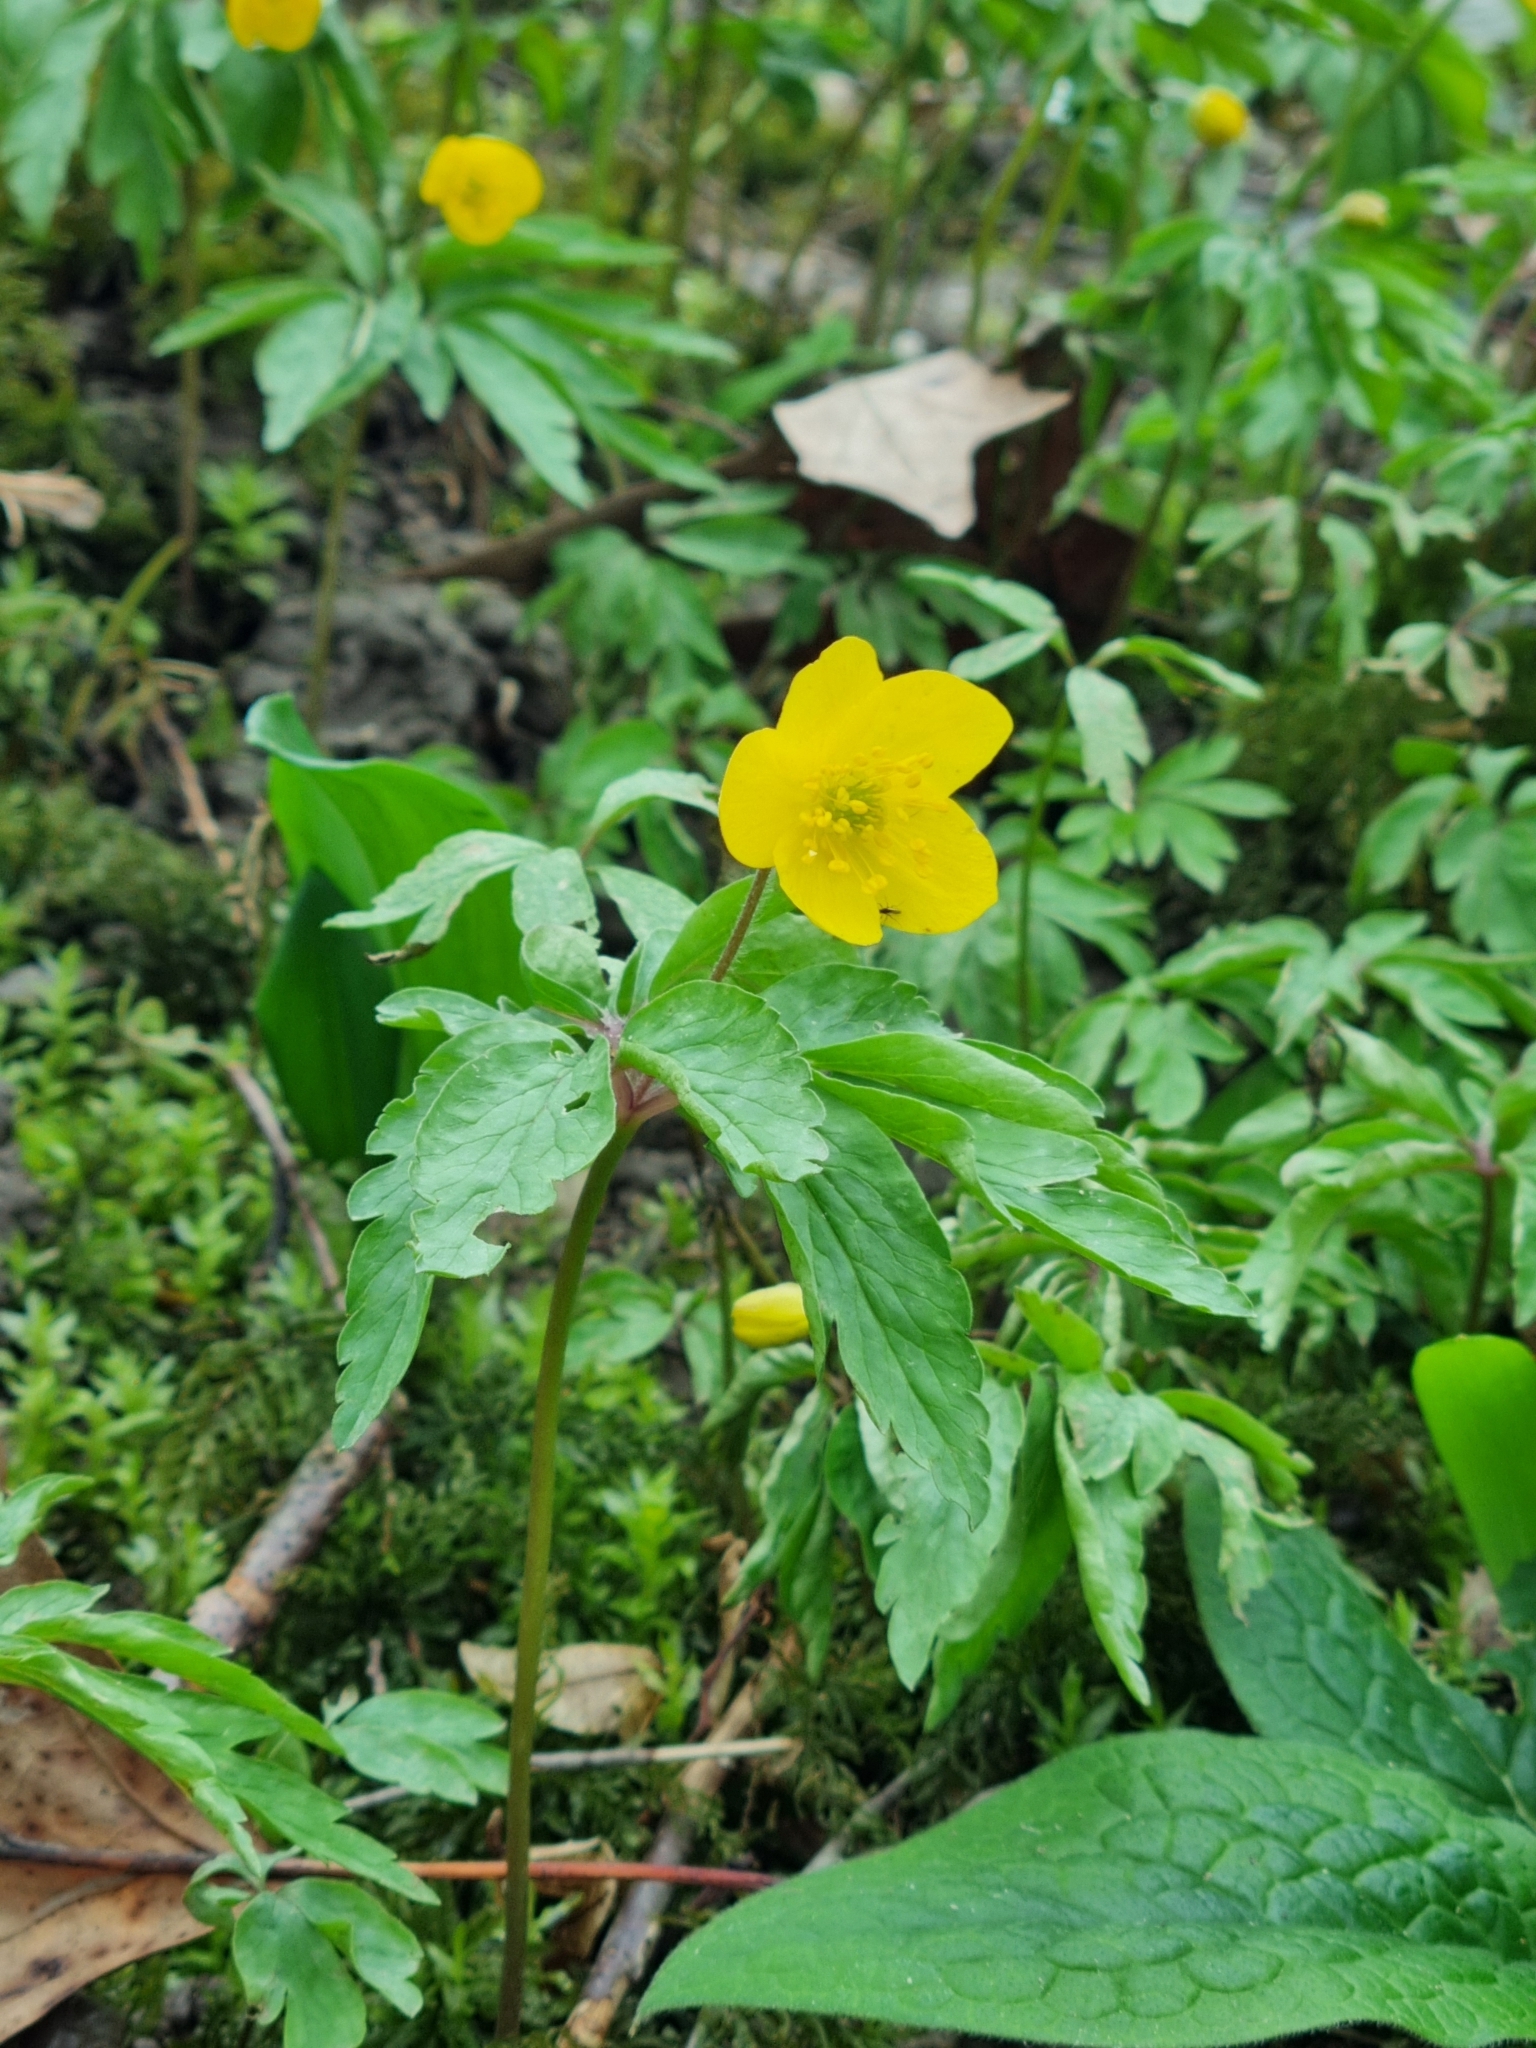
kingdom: Plantae
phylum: Tracheophyta
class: Magnoliopsida
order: Ranunculales
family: Ranunculaceae
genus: Anemone
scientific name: Anemone ranunculoides
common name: Yellow anemone
